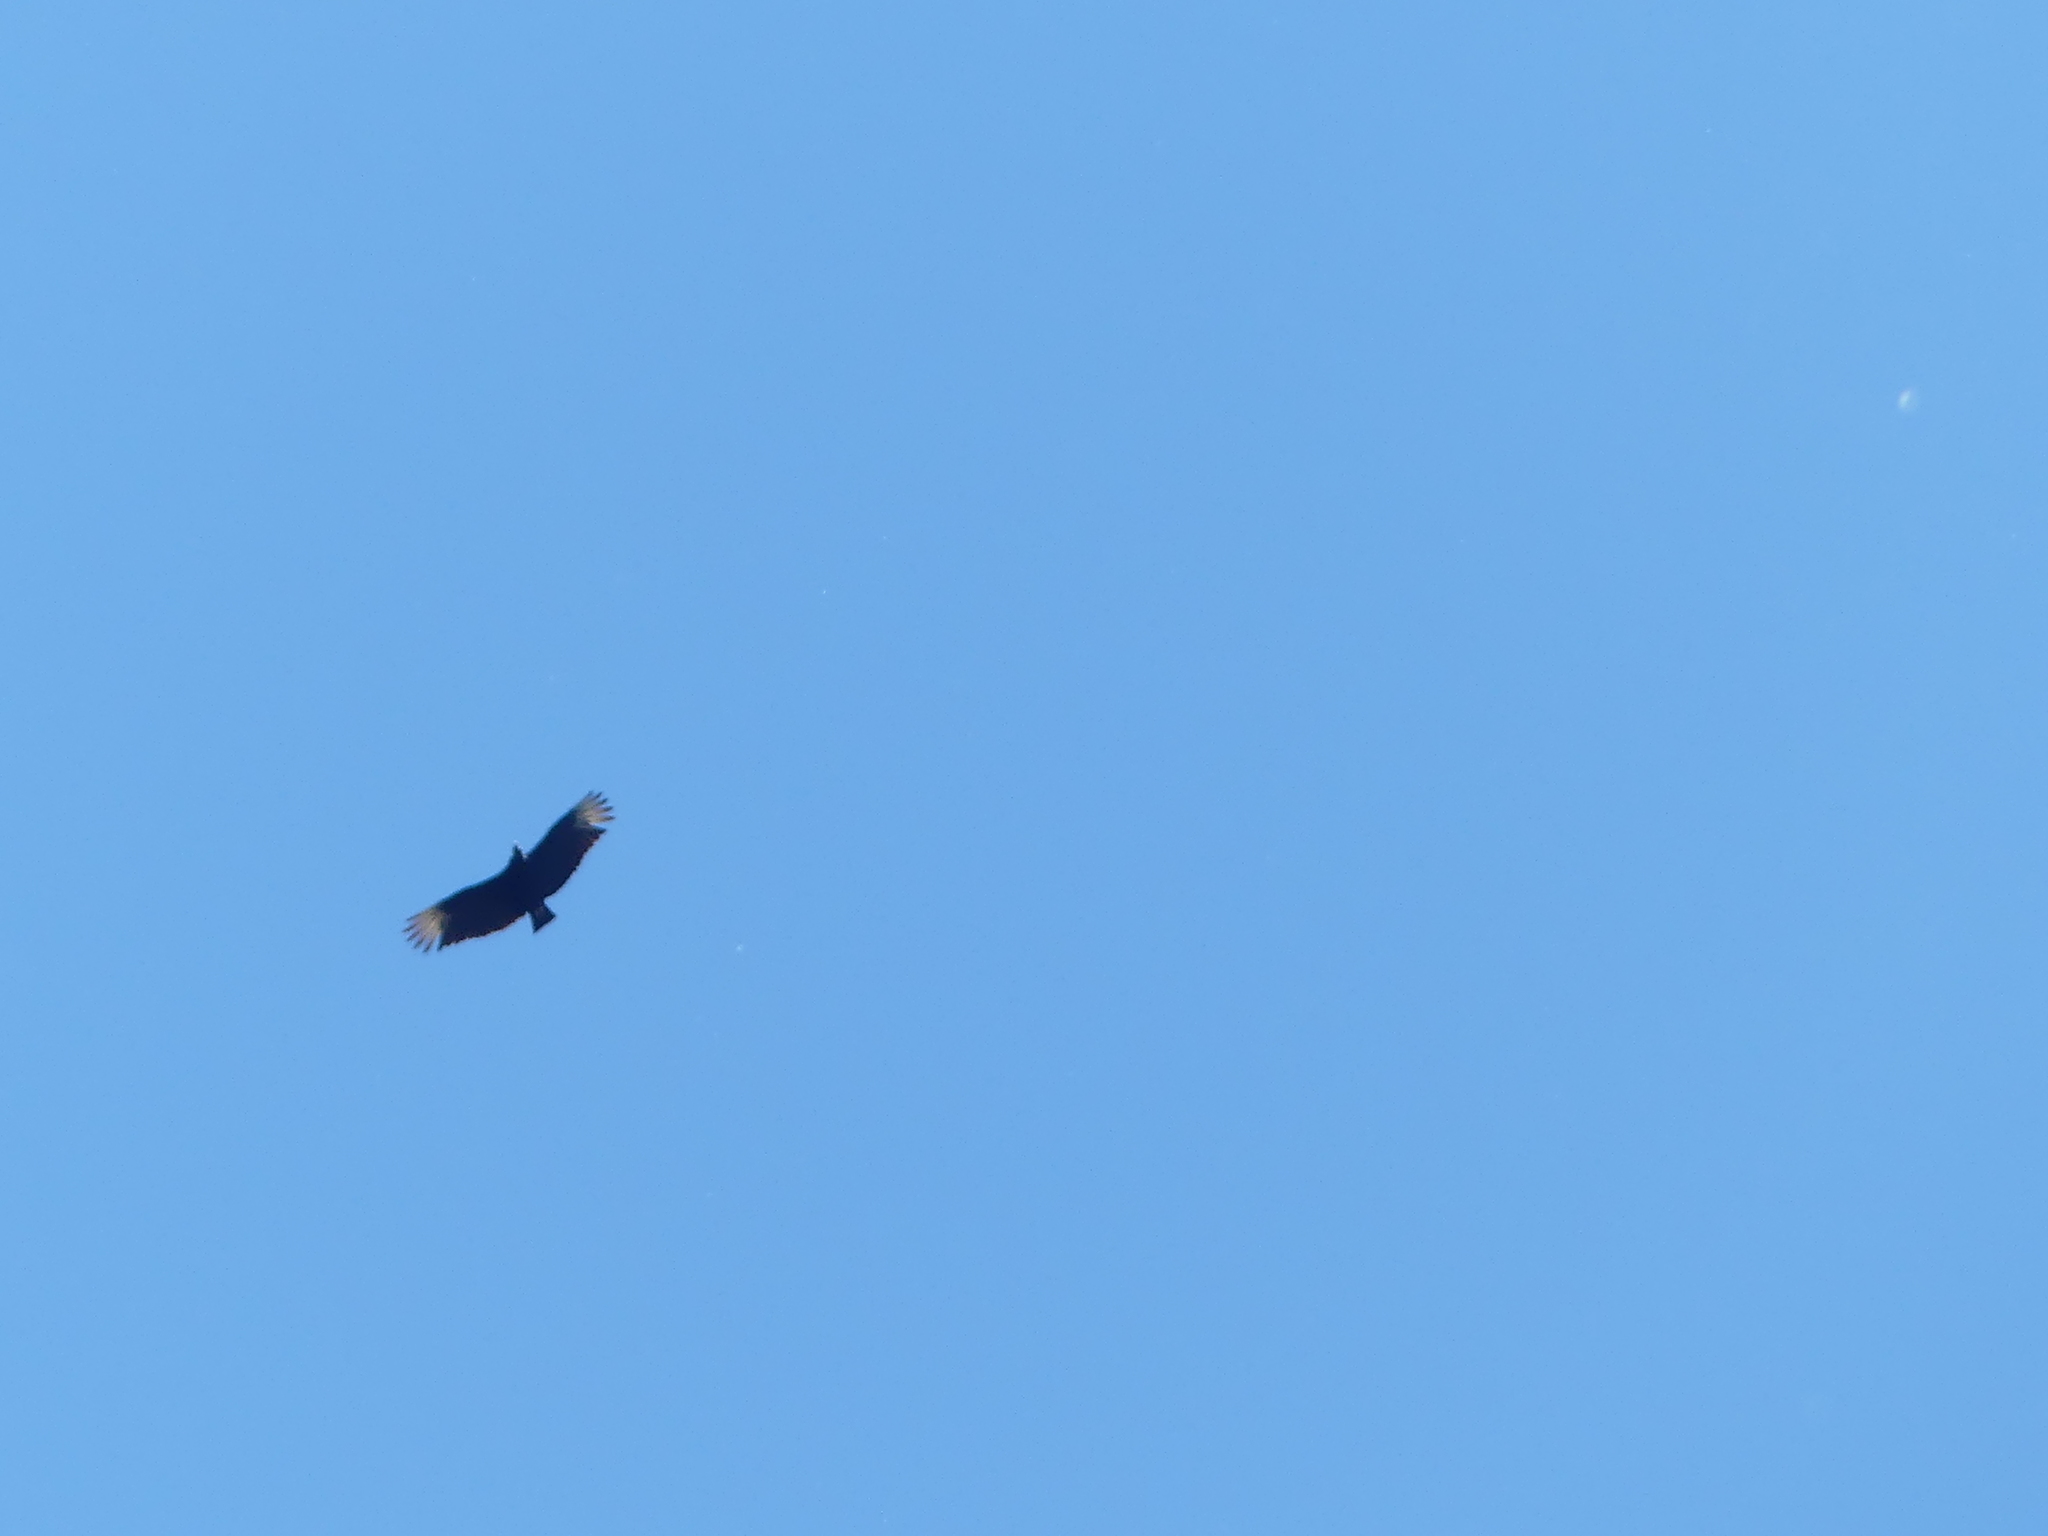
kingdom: Animalia
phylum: Chordata
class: Aves
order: Accipitriformes
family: Cathartidae
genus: Coragyps
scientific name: Coragyps atratus
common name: Black vulture
